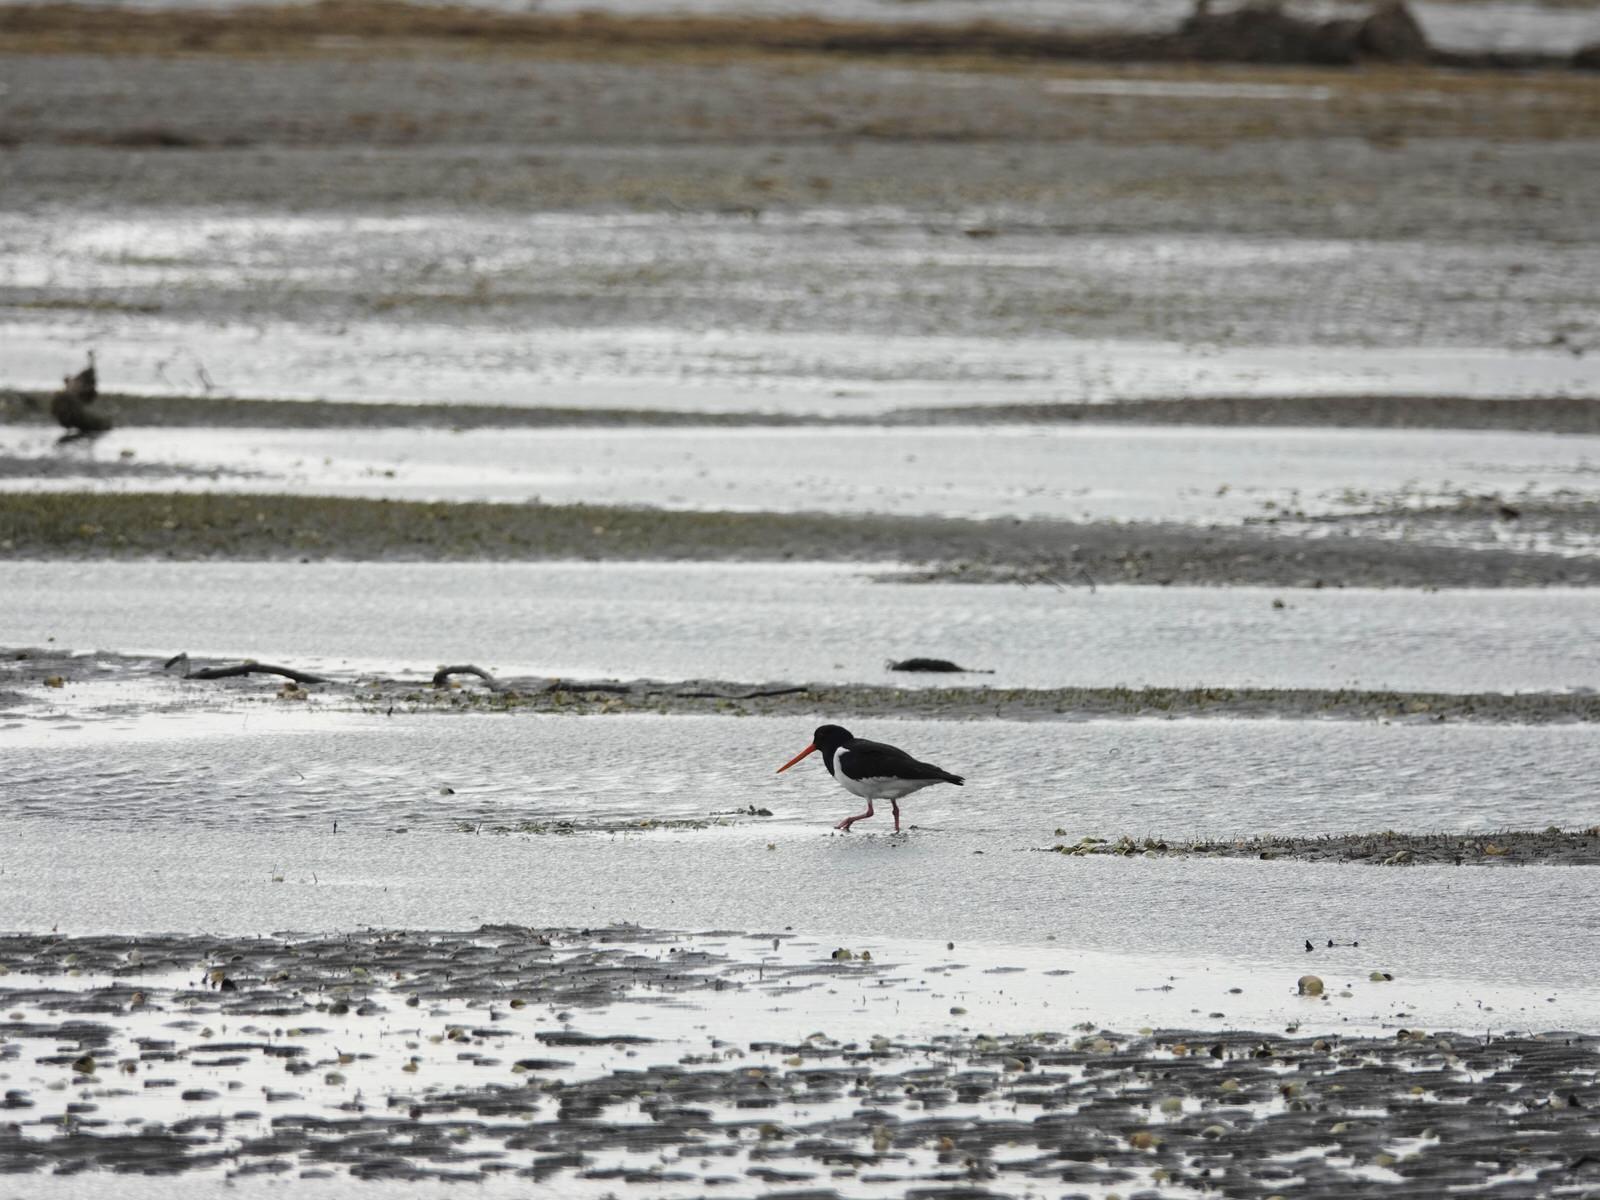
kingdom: Animalia
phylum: Chordata
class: Aves
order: Charadriiformes
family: Haematopodidae
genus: Haematopus
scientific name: Haematopus finschi
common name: South island oystercatcher
